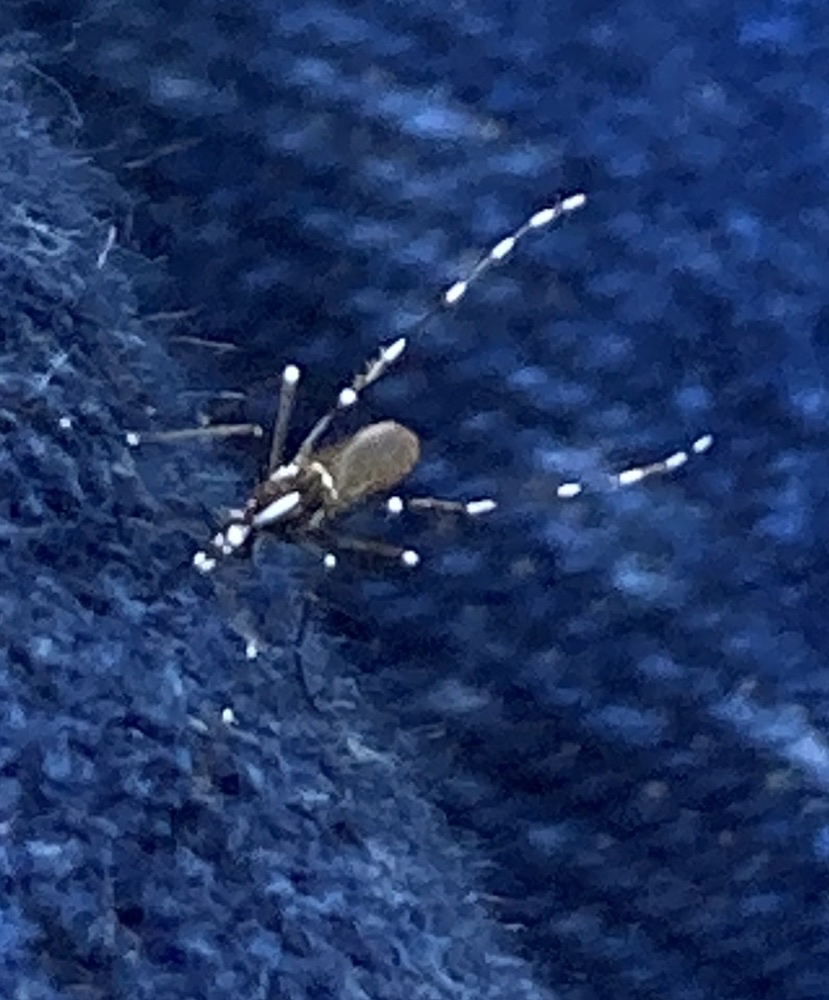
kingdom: Animalia
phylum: Arthropoda
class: Insecta
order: Diptera
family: Culicidae
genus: Aedes
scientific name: Aedes albopictus
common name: Tiger mosquito
